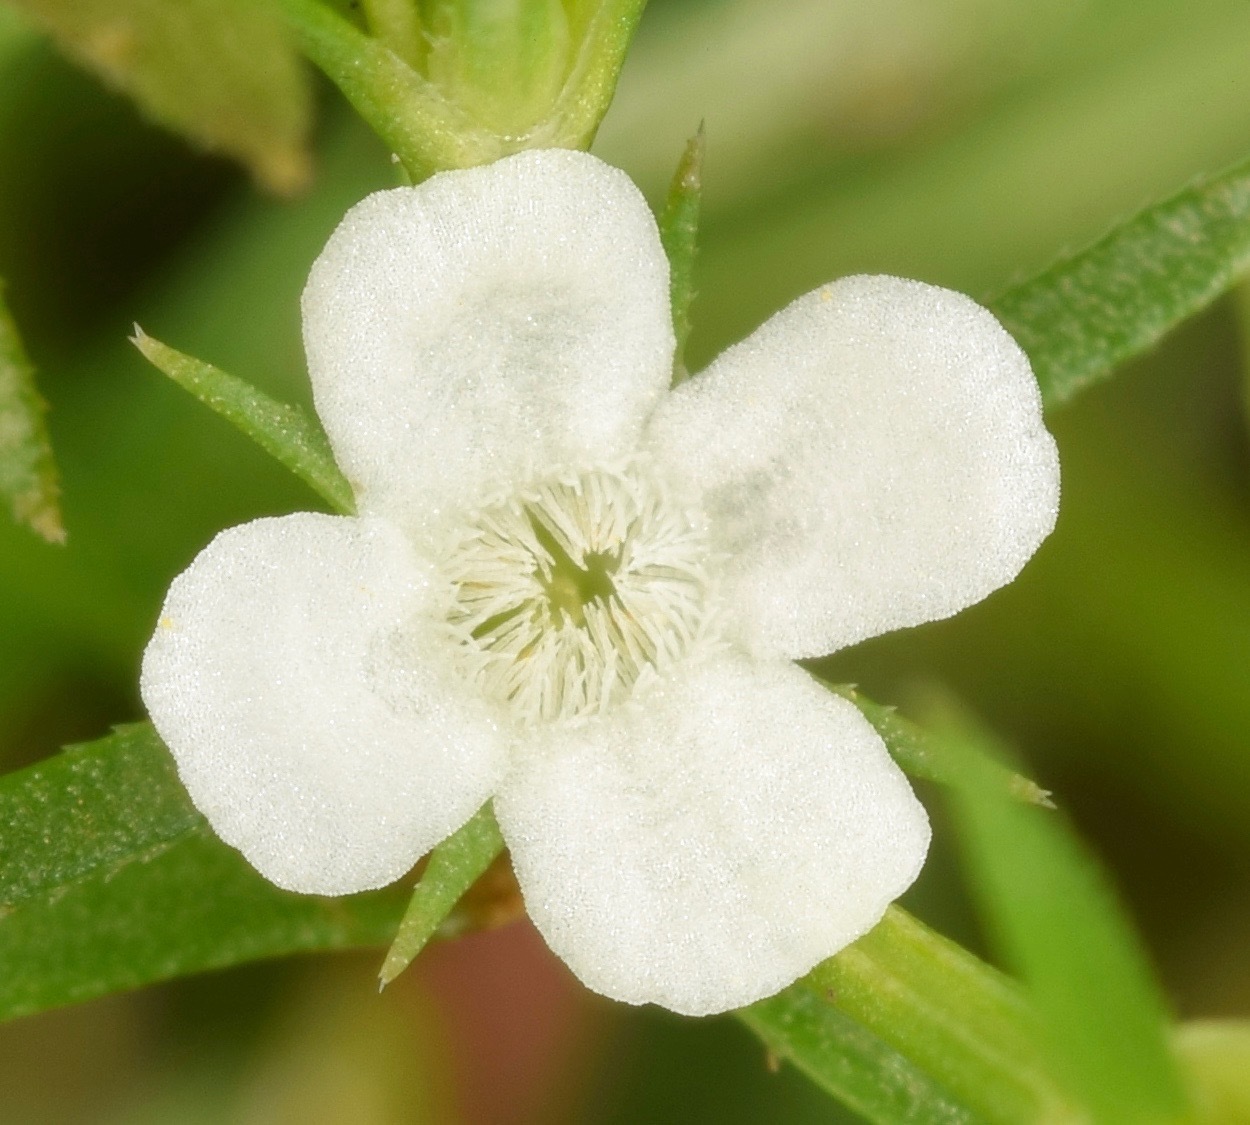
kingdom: Plantae
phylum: Tracheophyta
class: Magnoliopsida
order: Lamiales
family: Tetrachondraceae
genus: Polypremum
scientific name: Polypremum procumbens
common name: Juniper-leaf
